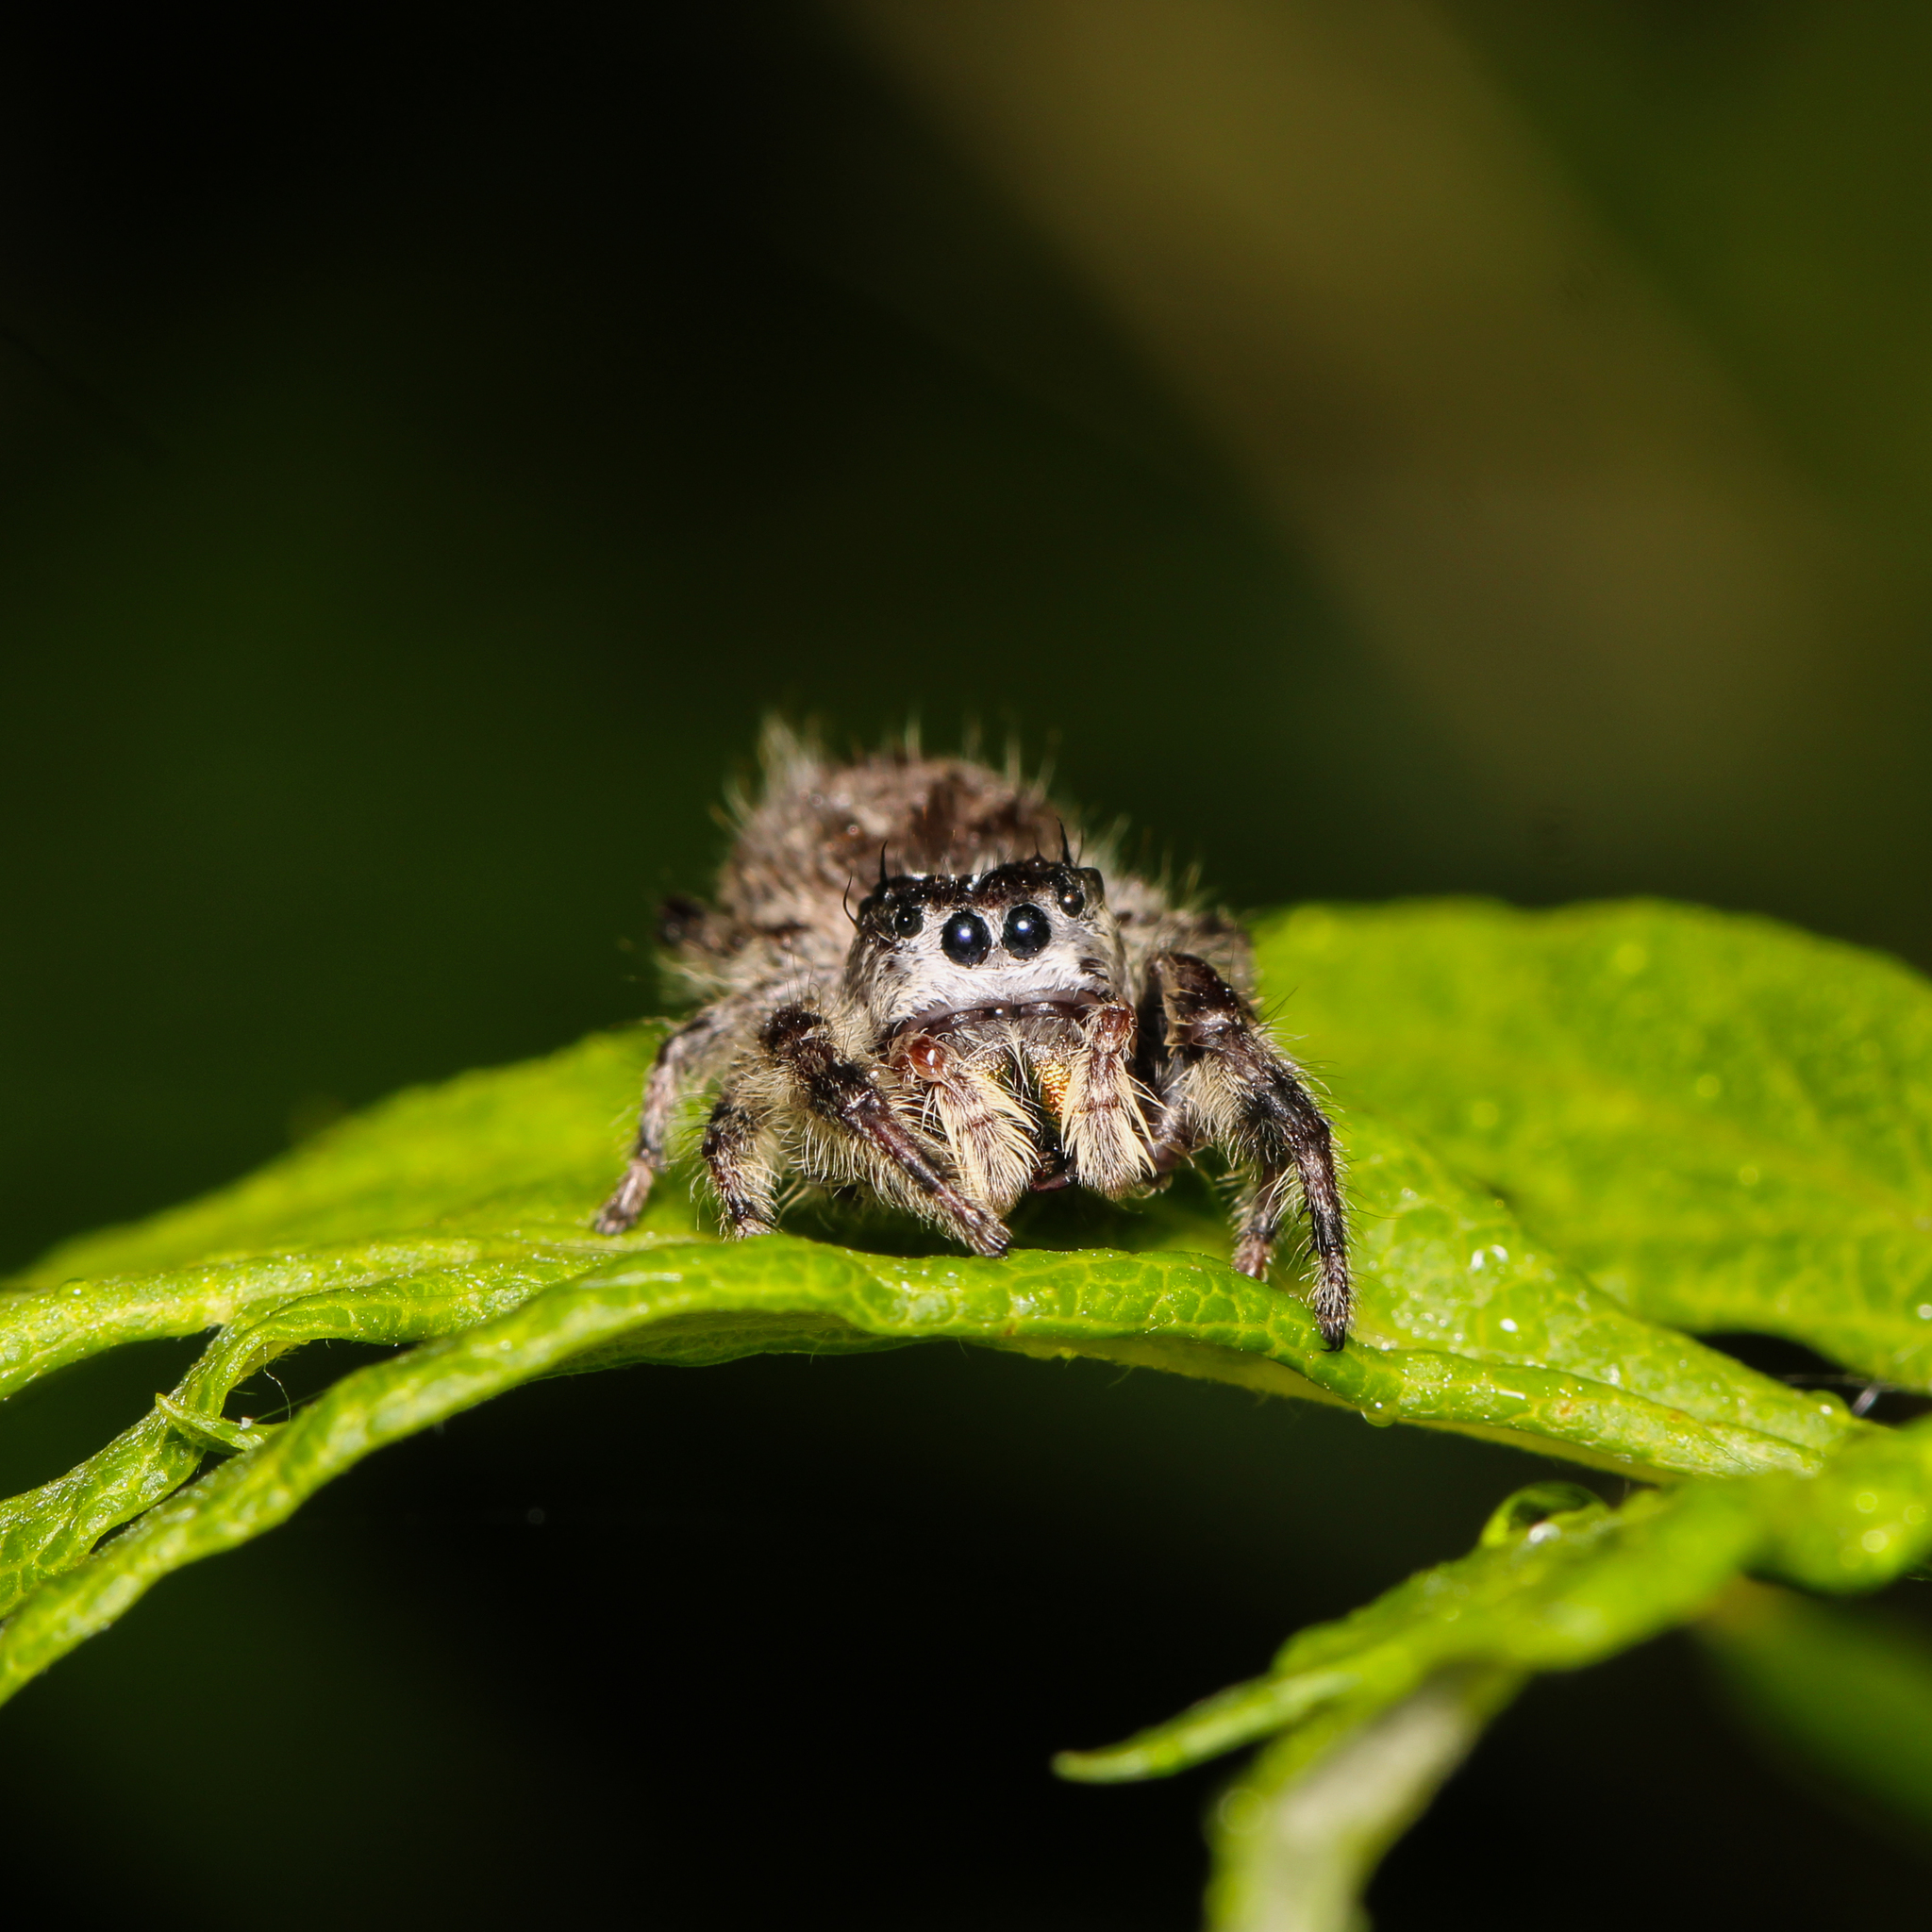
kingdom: Animalia
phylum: Arthropoda
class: Arachnida
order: Araneae
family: Salticidae
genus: Phidippus
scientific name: Phidippus otiosus
